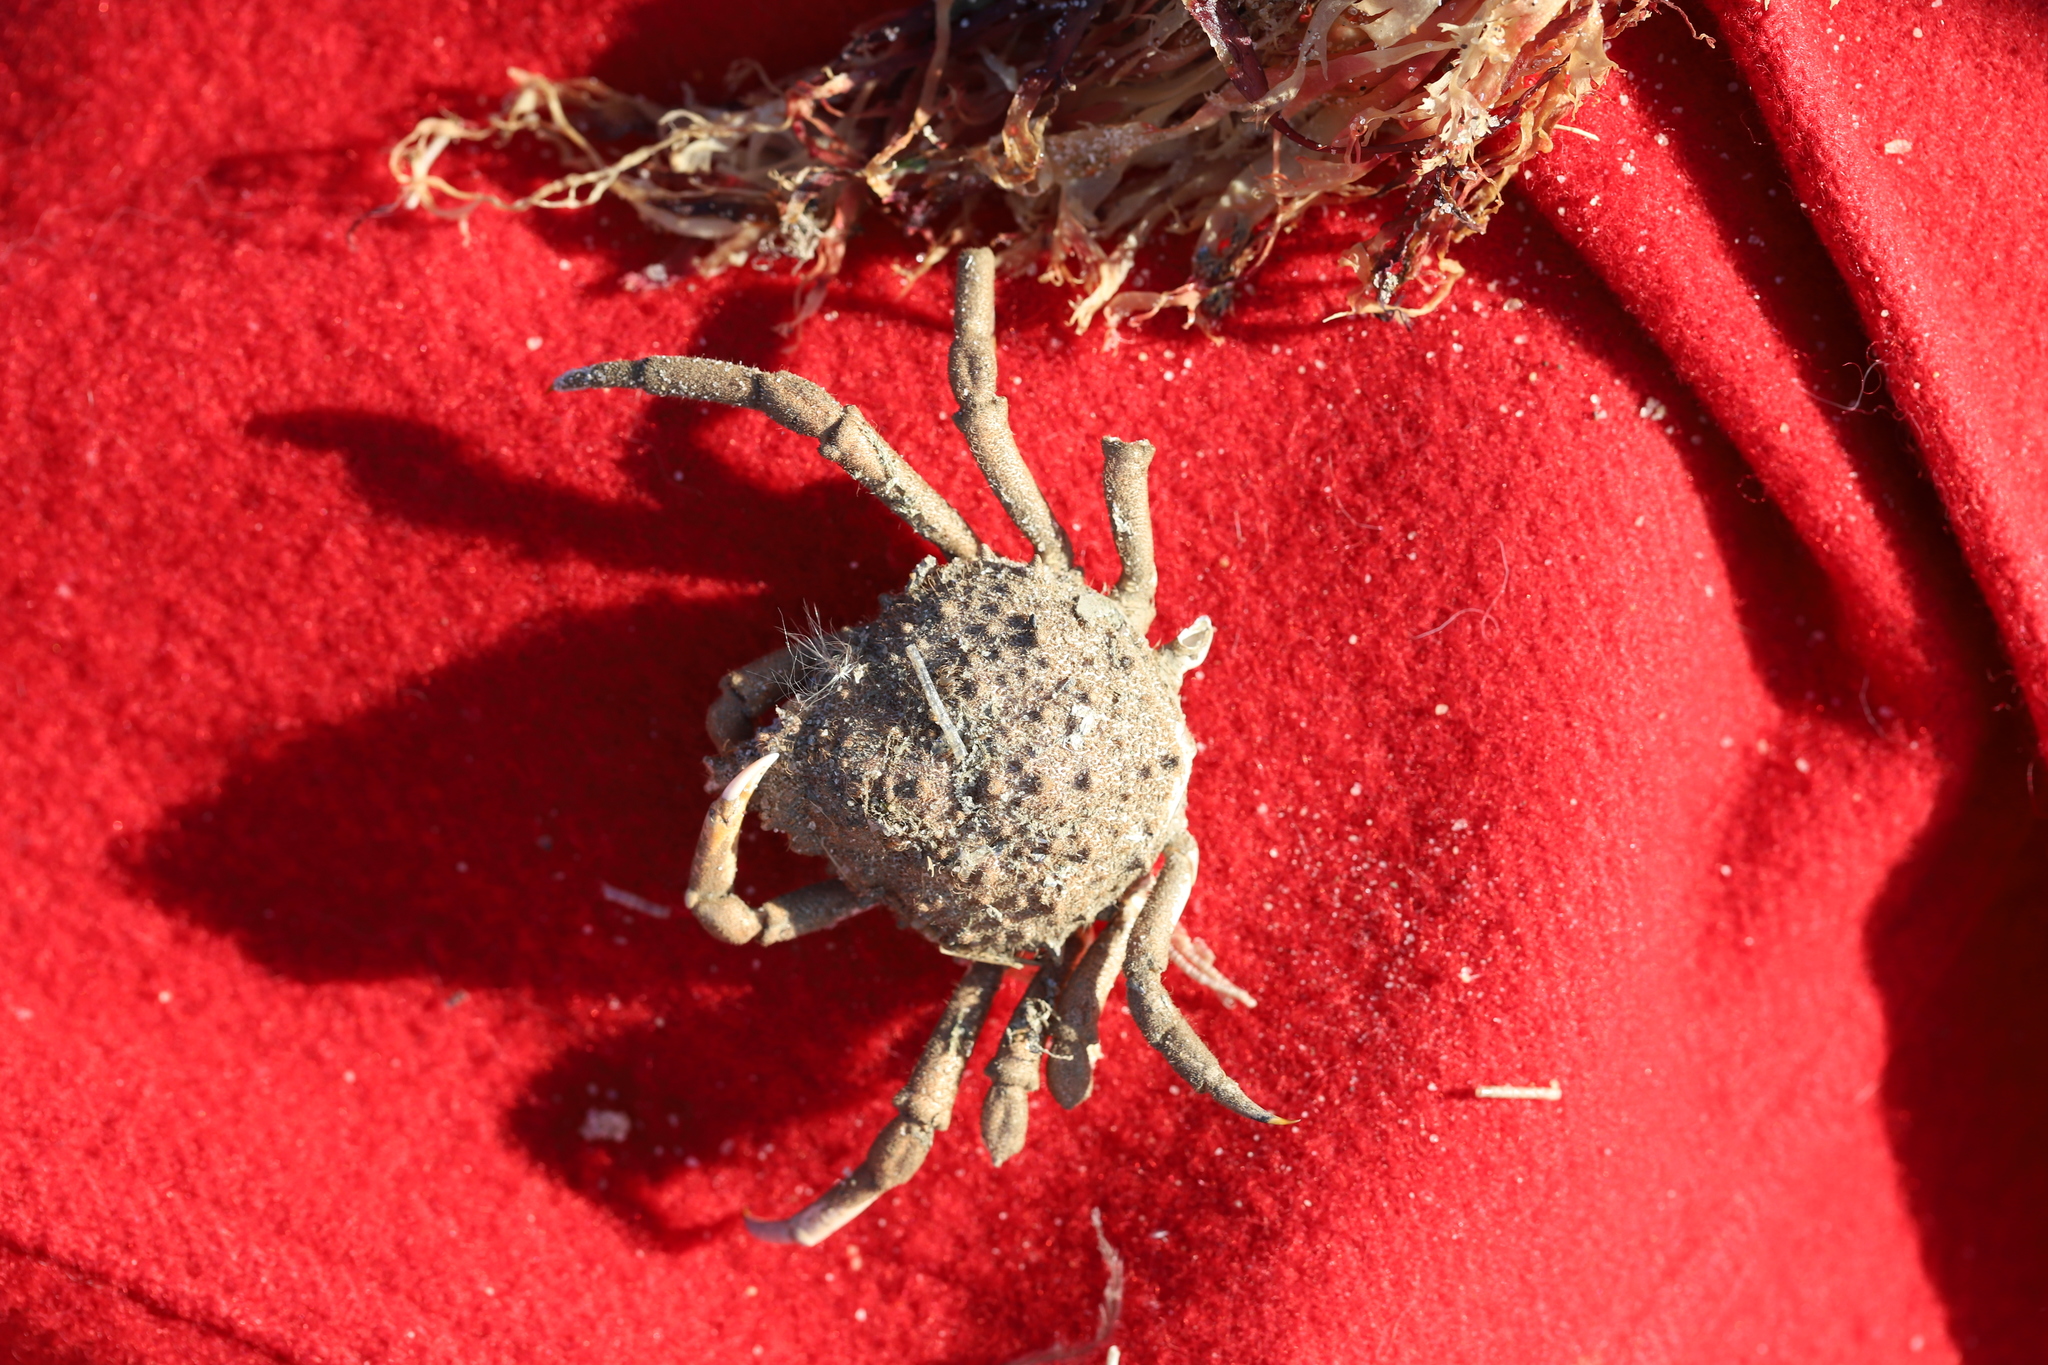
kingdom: Animalia
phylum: Arthropoda
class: Malacostraca
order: Decapoda
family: Epialtidae
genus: Libinia
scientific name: Libinia emarginata
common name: Common spider crab
